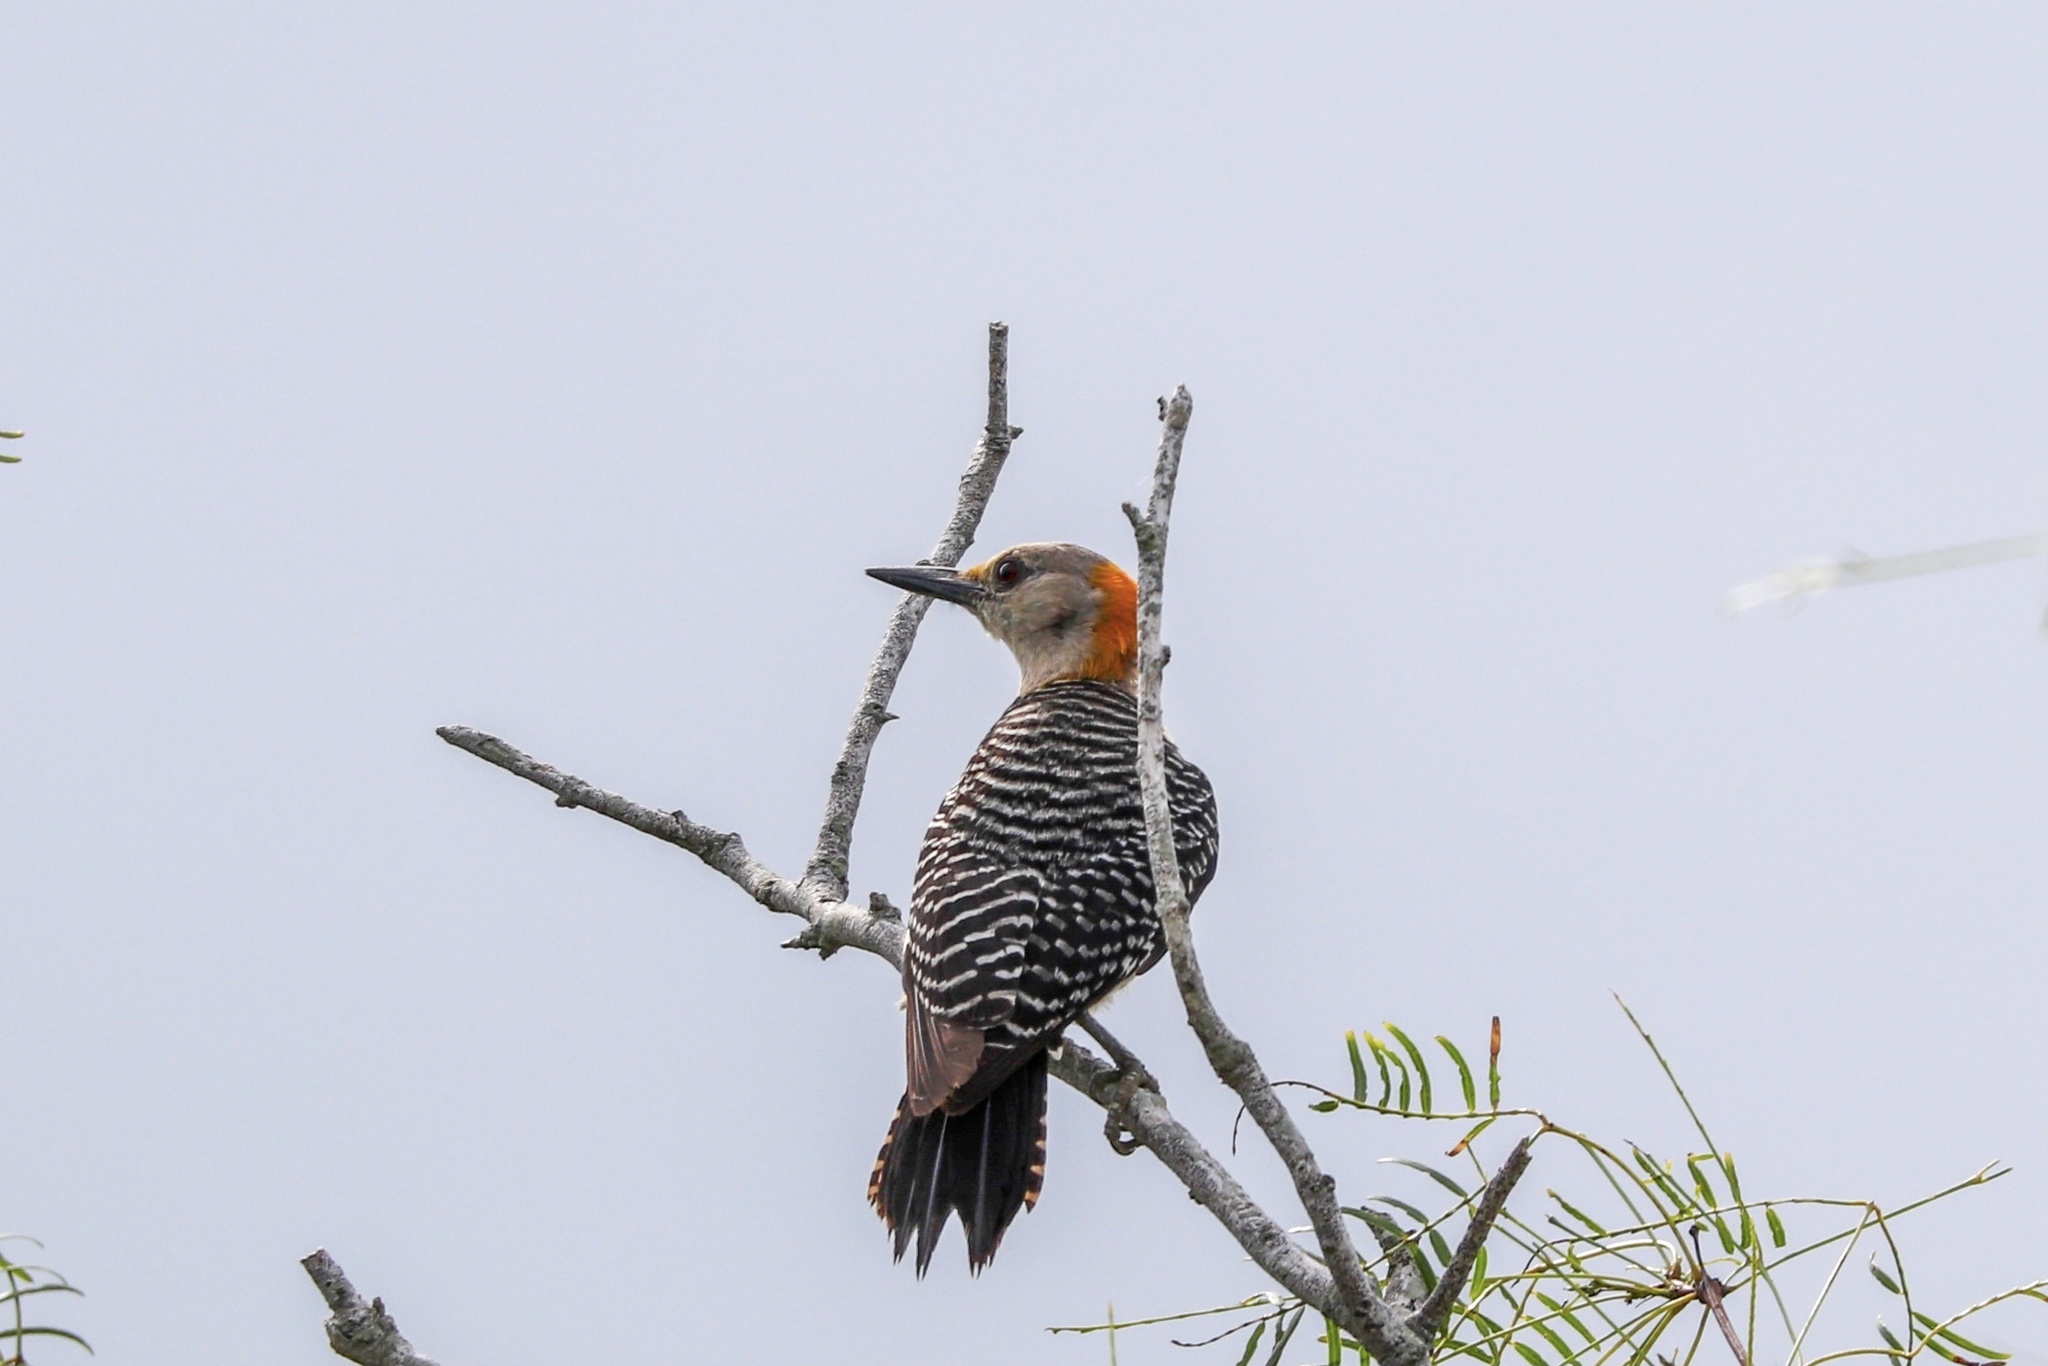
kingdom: Animalia
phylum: Chordata
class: Aves
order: Piciformes
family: Picidae
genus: Melanerpes
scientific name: Melanerpes aurifrons
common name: Golden-fronted woodpecker
